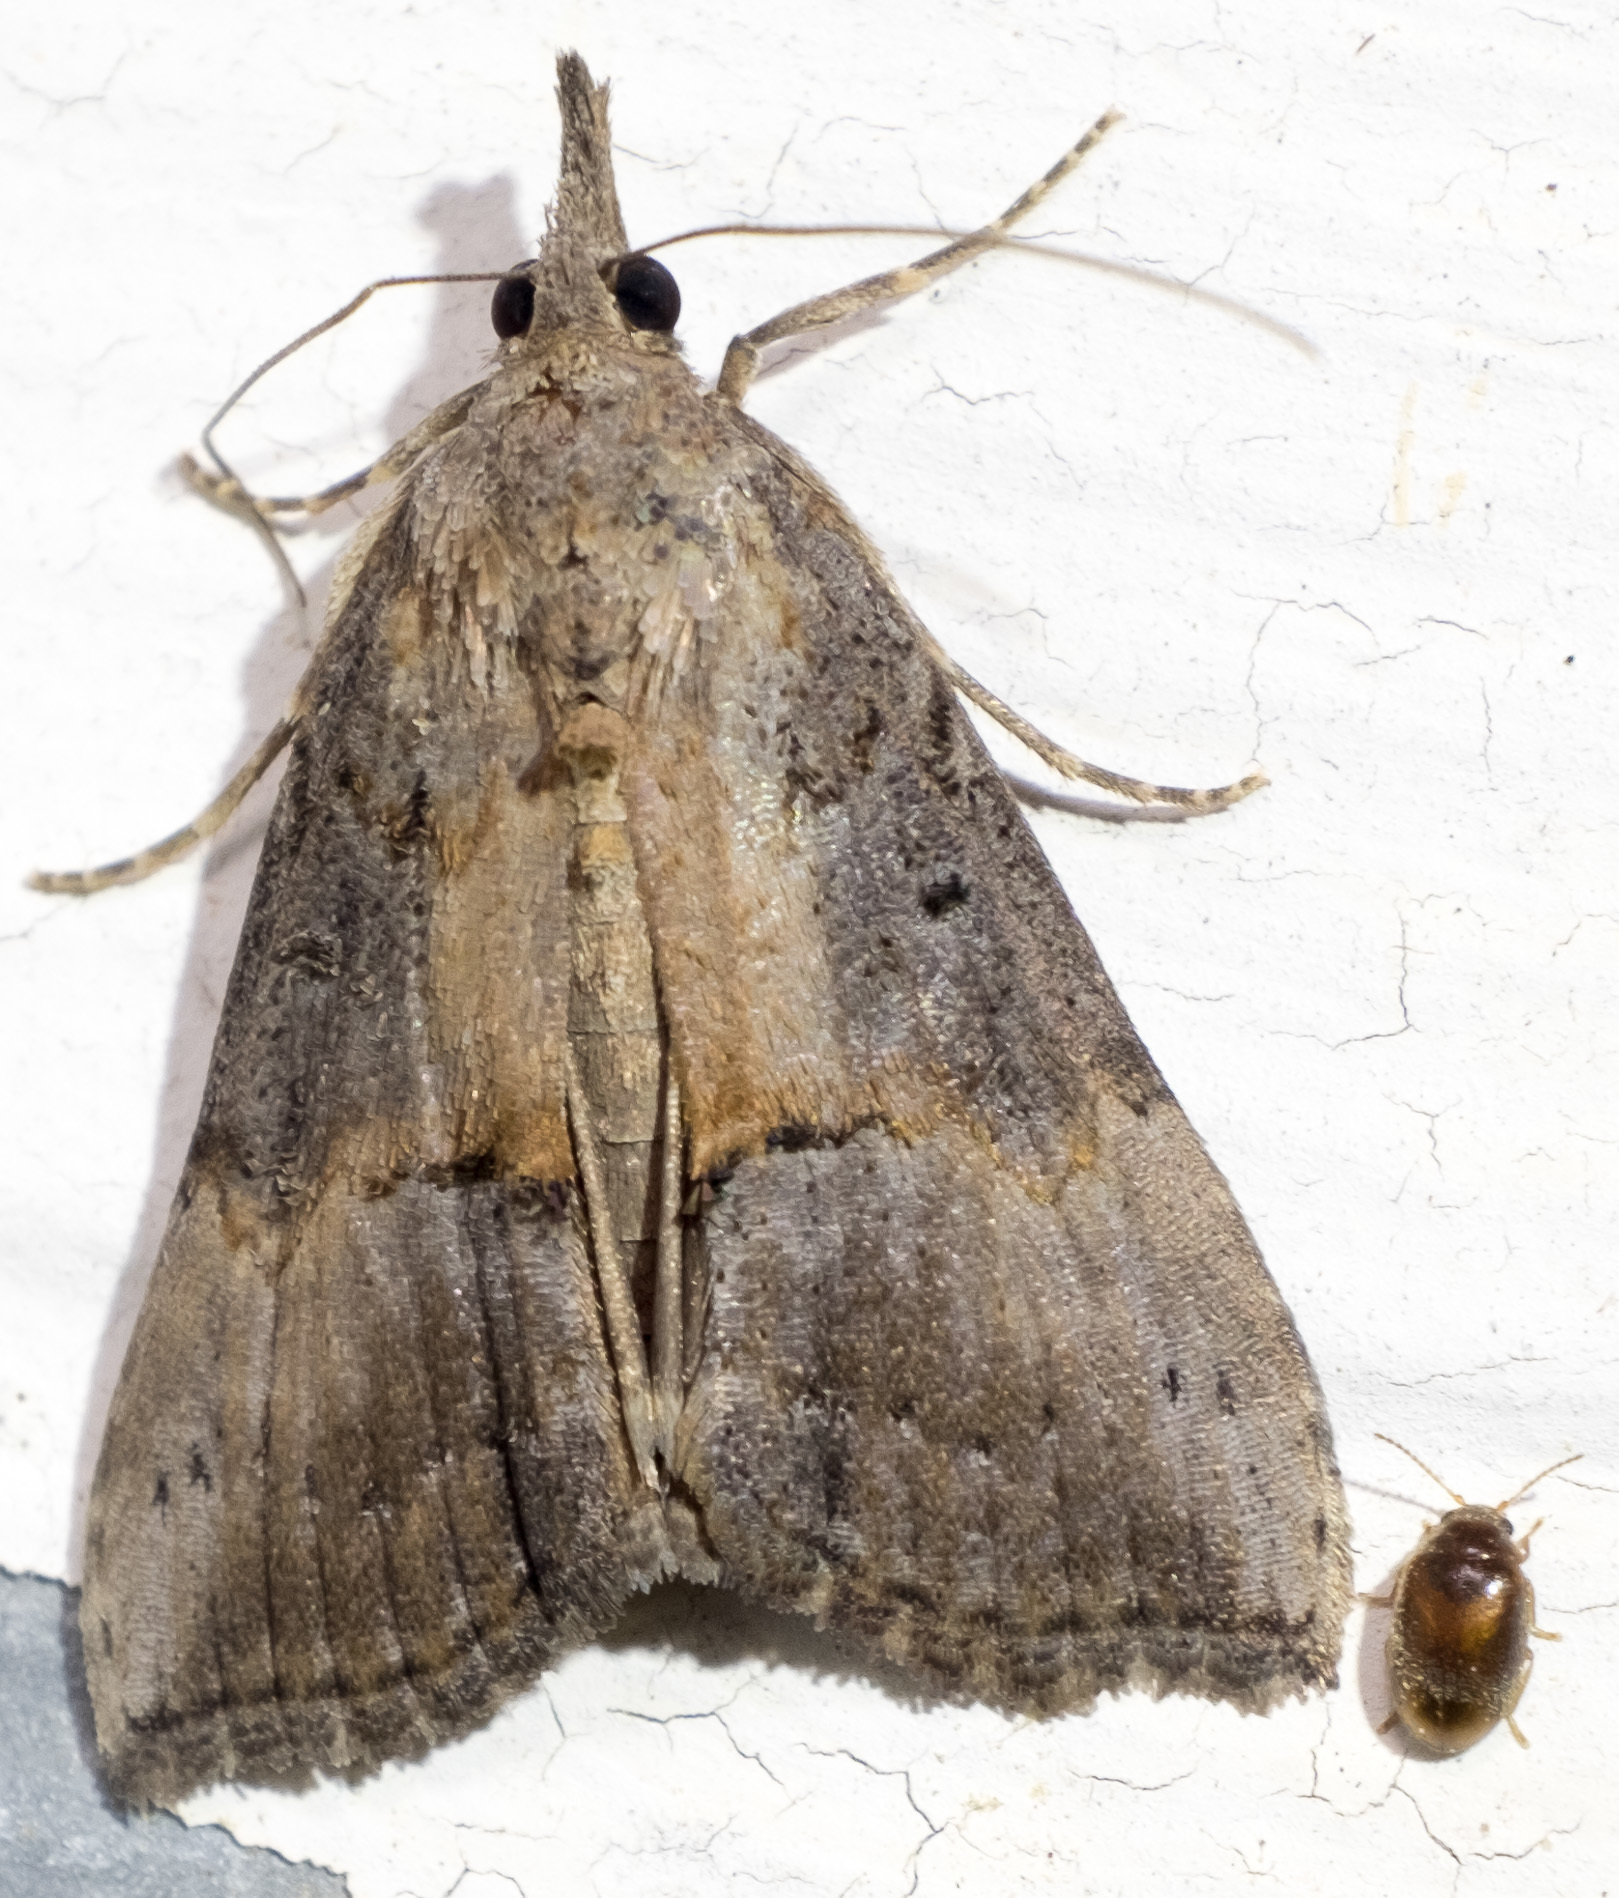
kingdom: Animalia
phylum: Arthropoda
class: Insecta
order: Lepidoptera
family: Erebidae
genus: Hypena
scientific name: Hypena scabra
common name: Green cloverworm
